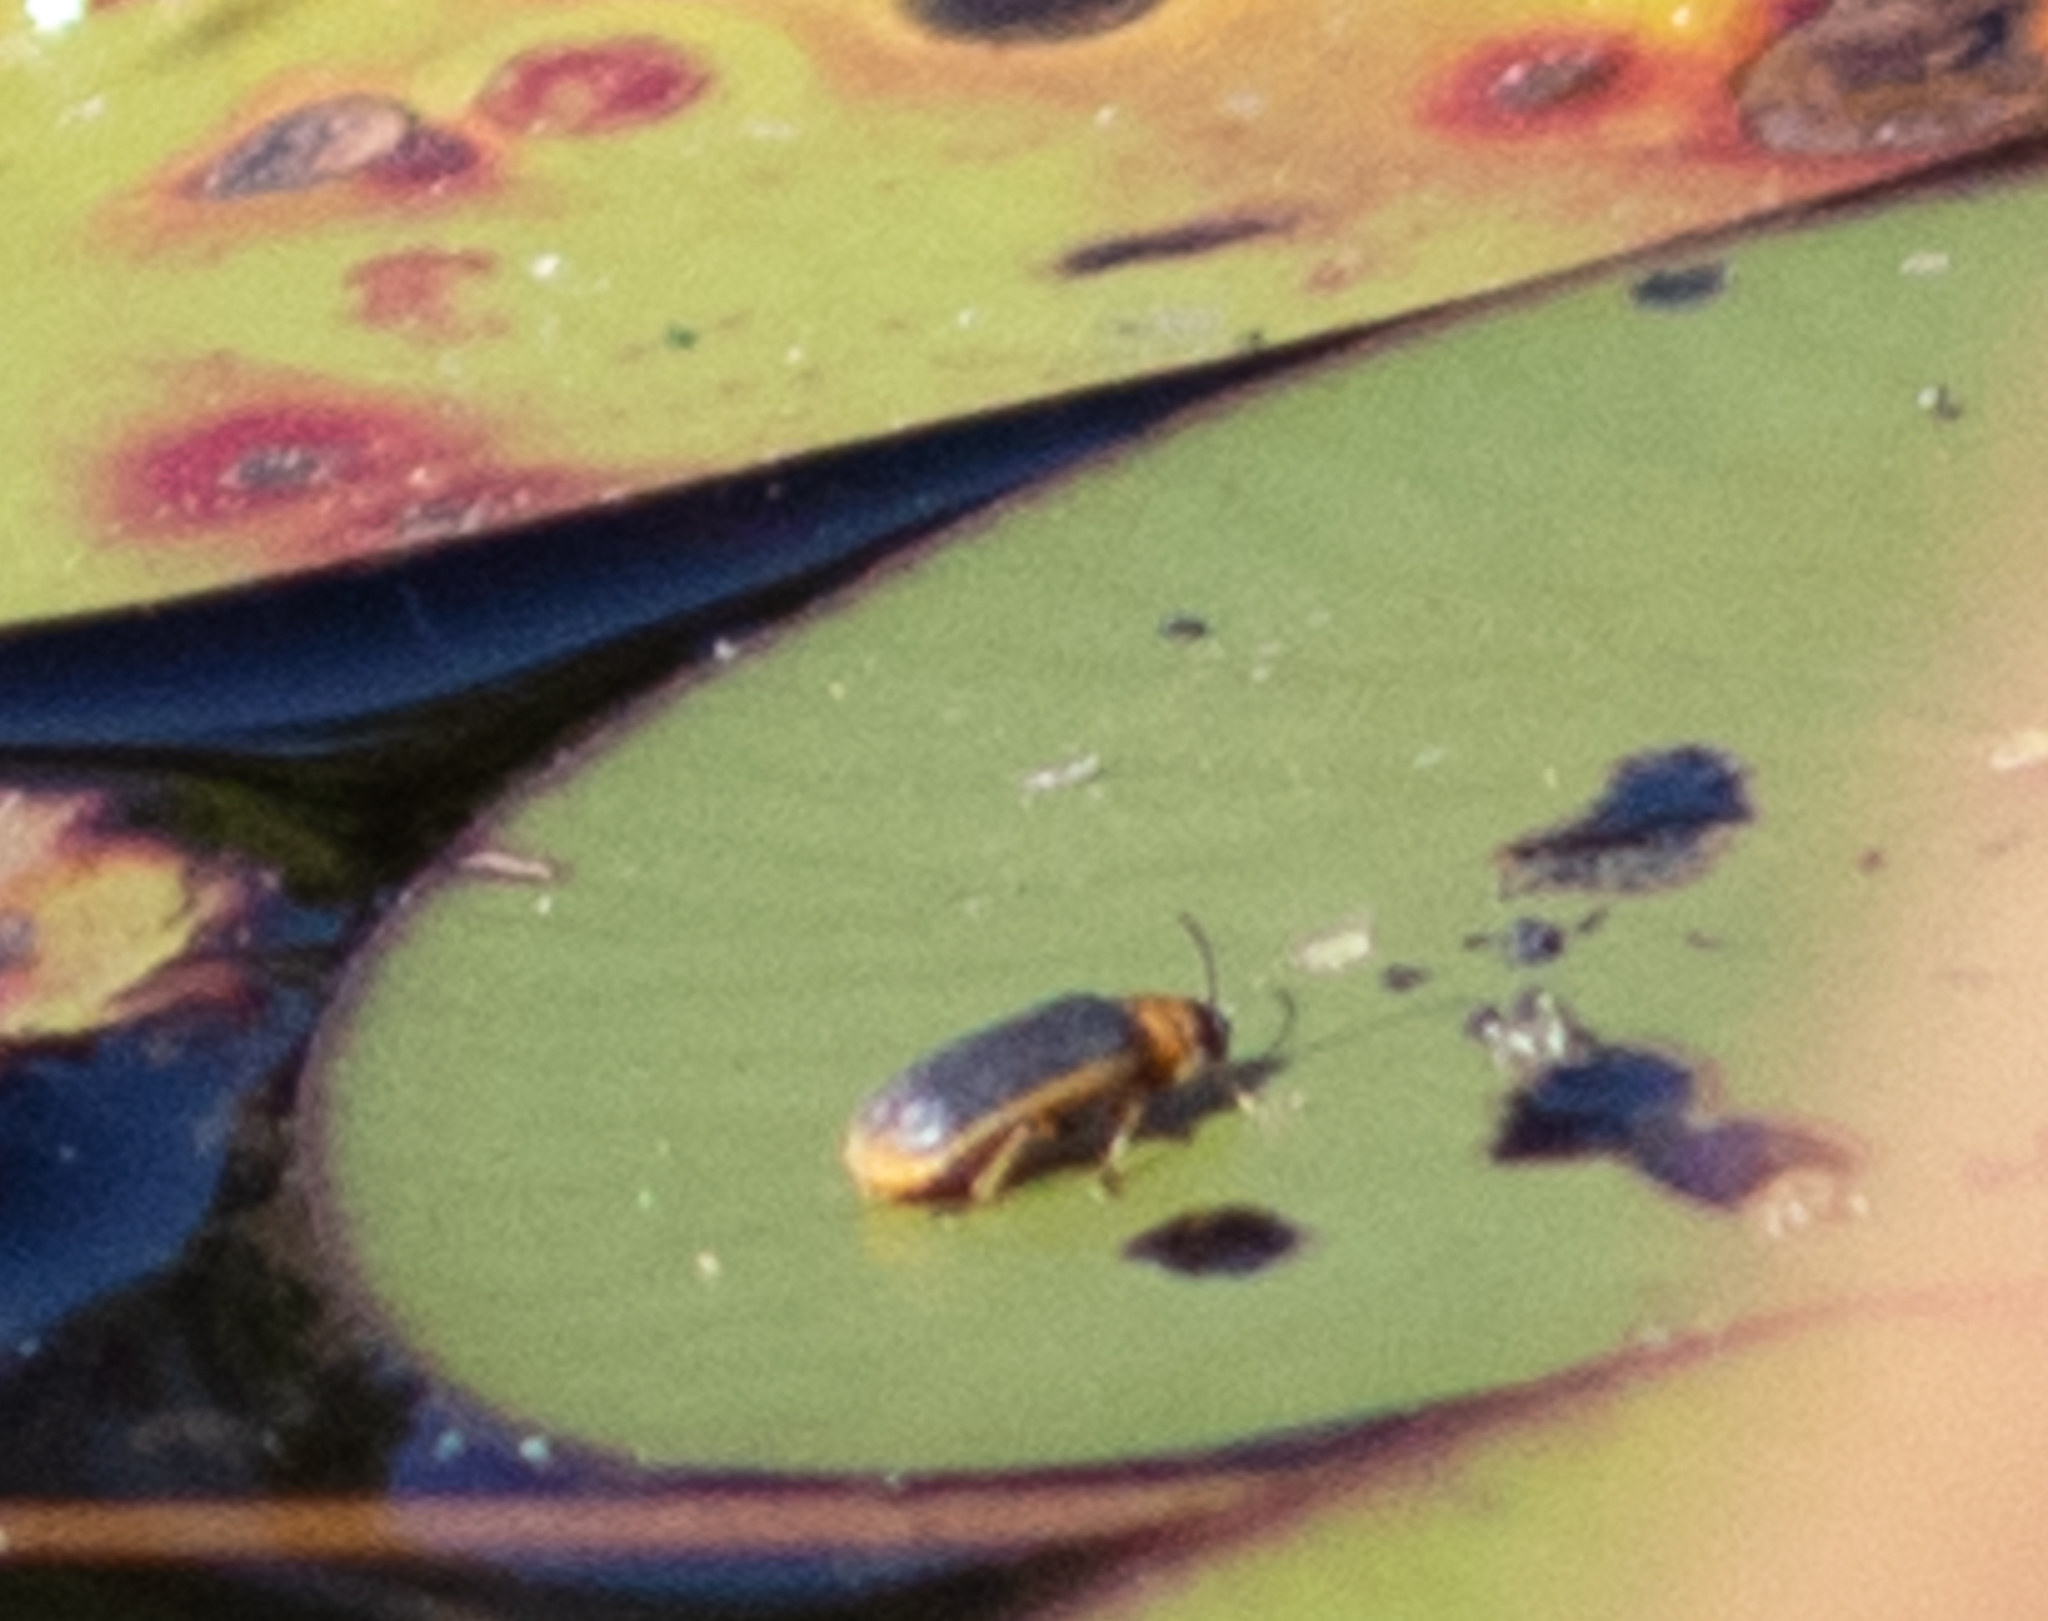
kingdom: Animalia
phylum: Arthropoda
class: Insecta
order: Coleoptera
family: Chrysomelidae
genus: Galerucella
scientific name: Galerucella nymphaeae
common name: Leaf beetle
